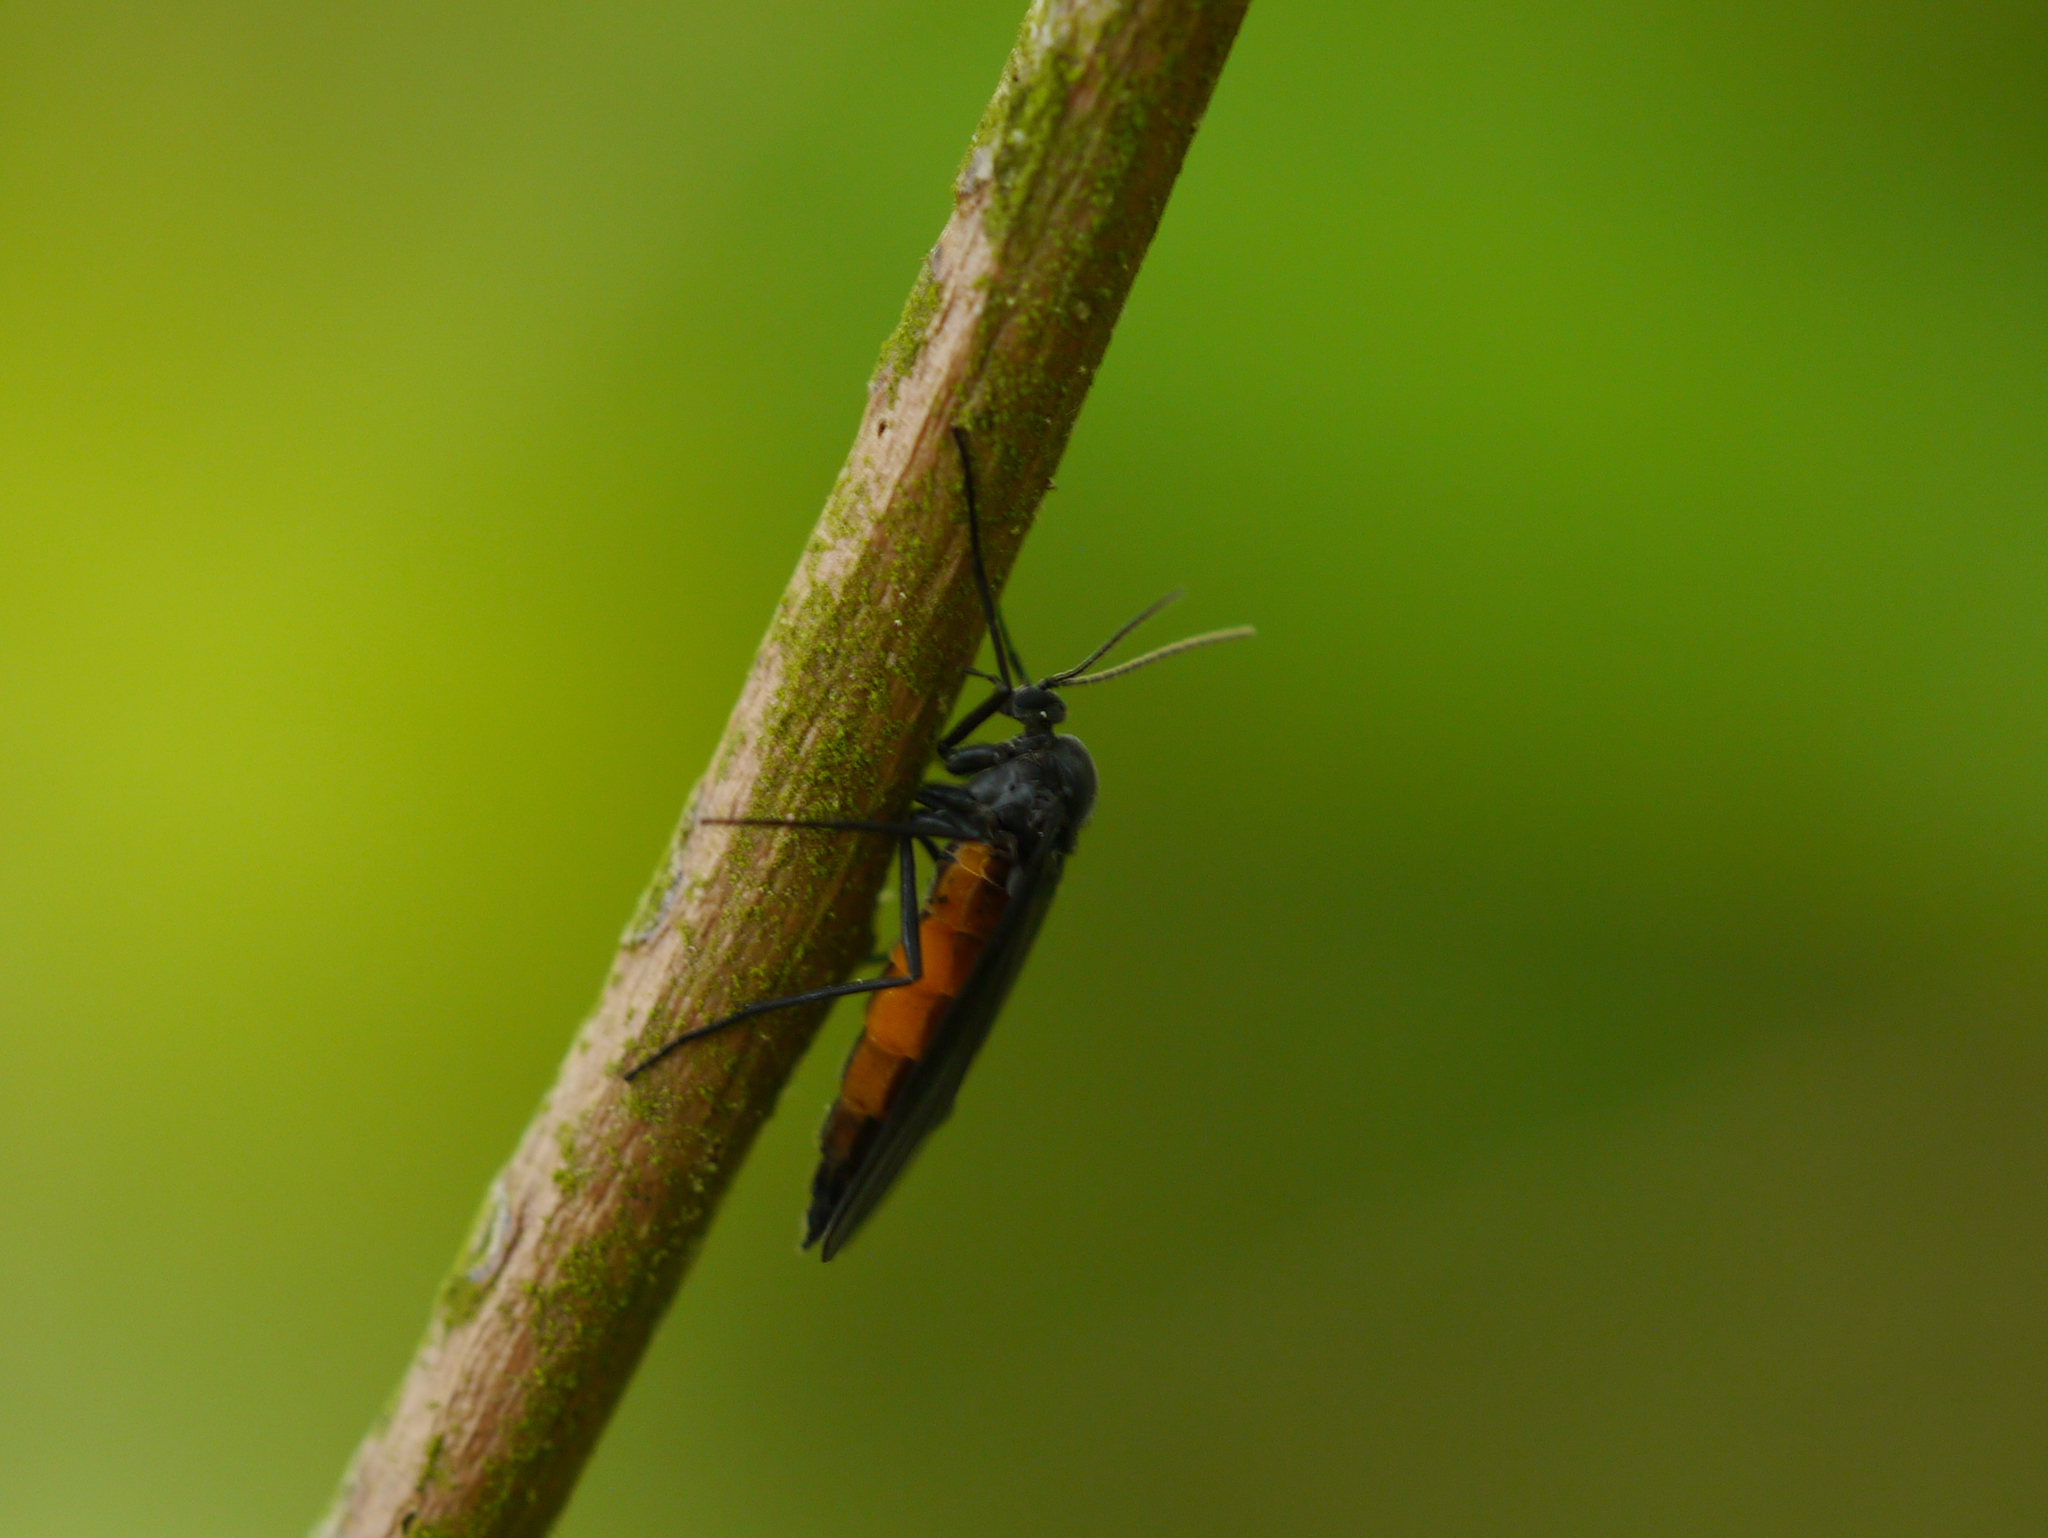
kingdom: Animalia
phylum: Arthropoda
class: Insecta
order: Diptera
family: Sciaridae
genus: Odontosciara
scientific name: Odontosciara nigra
